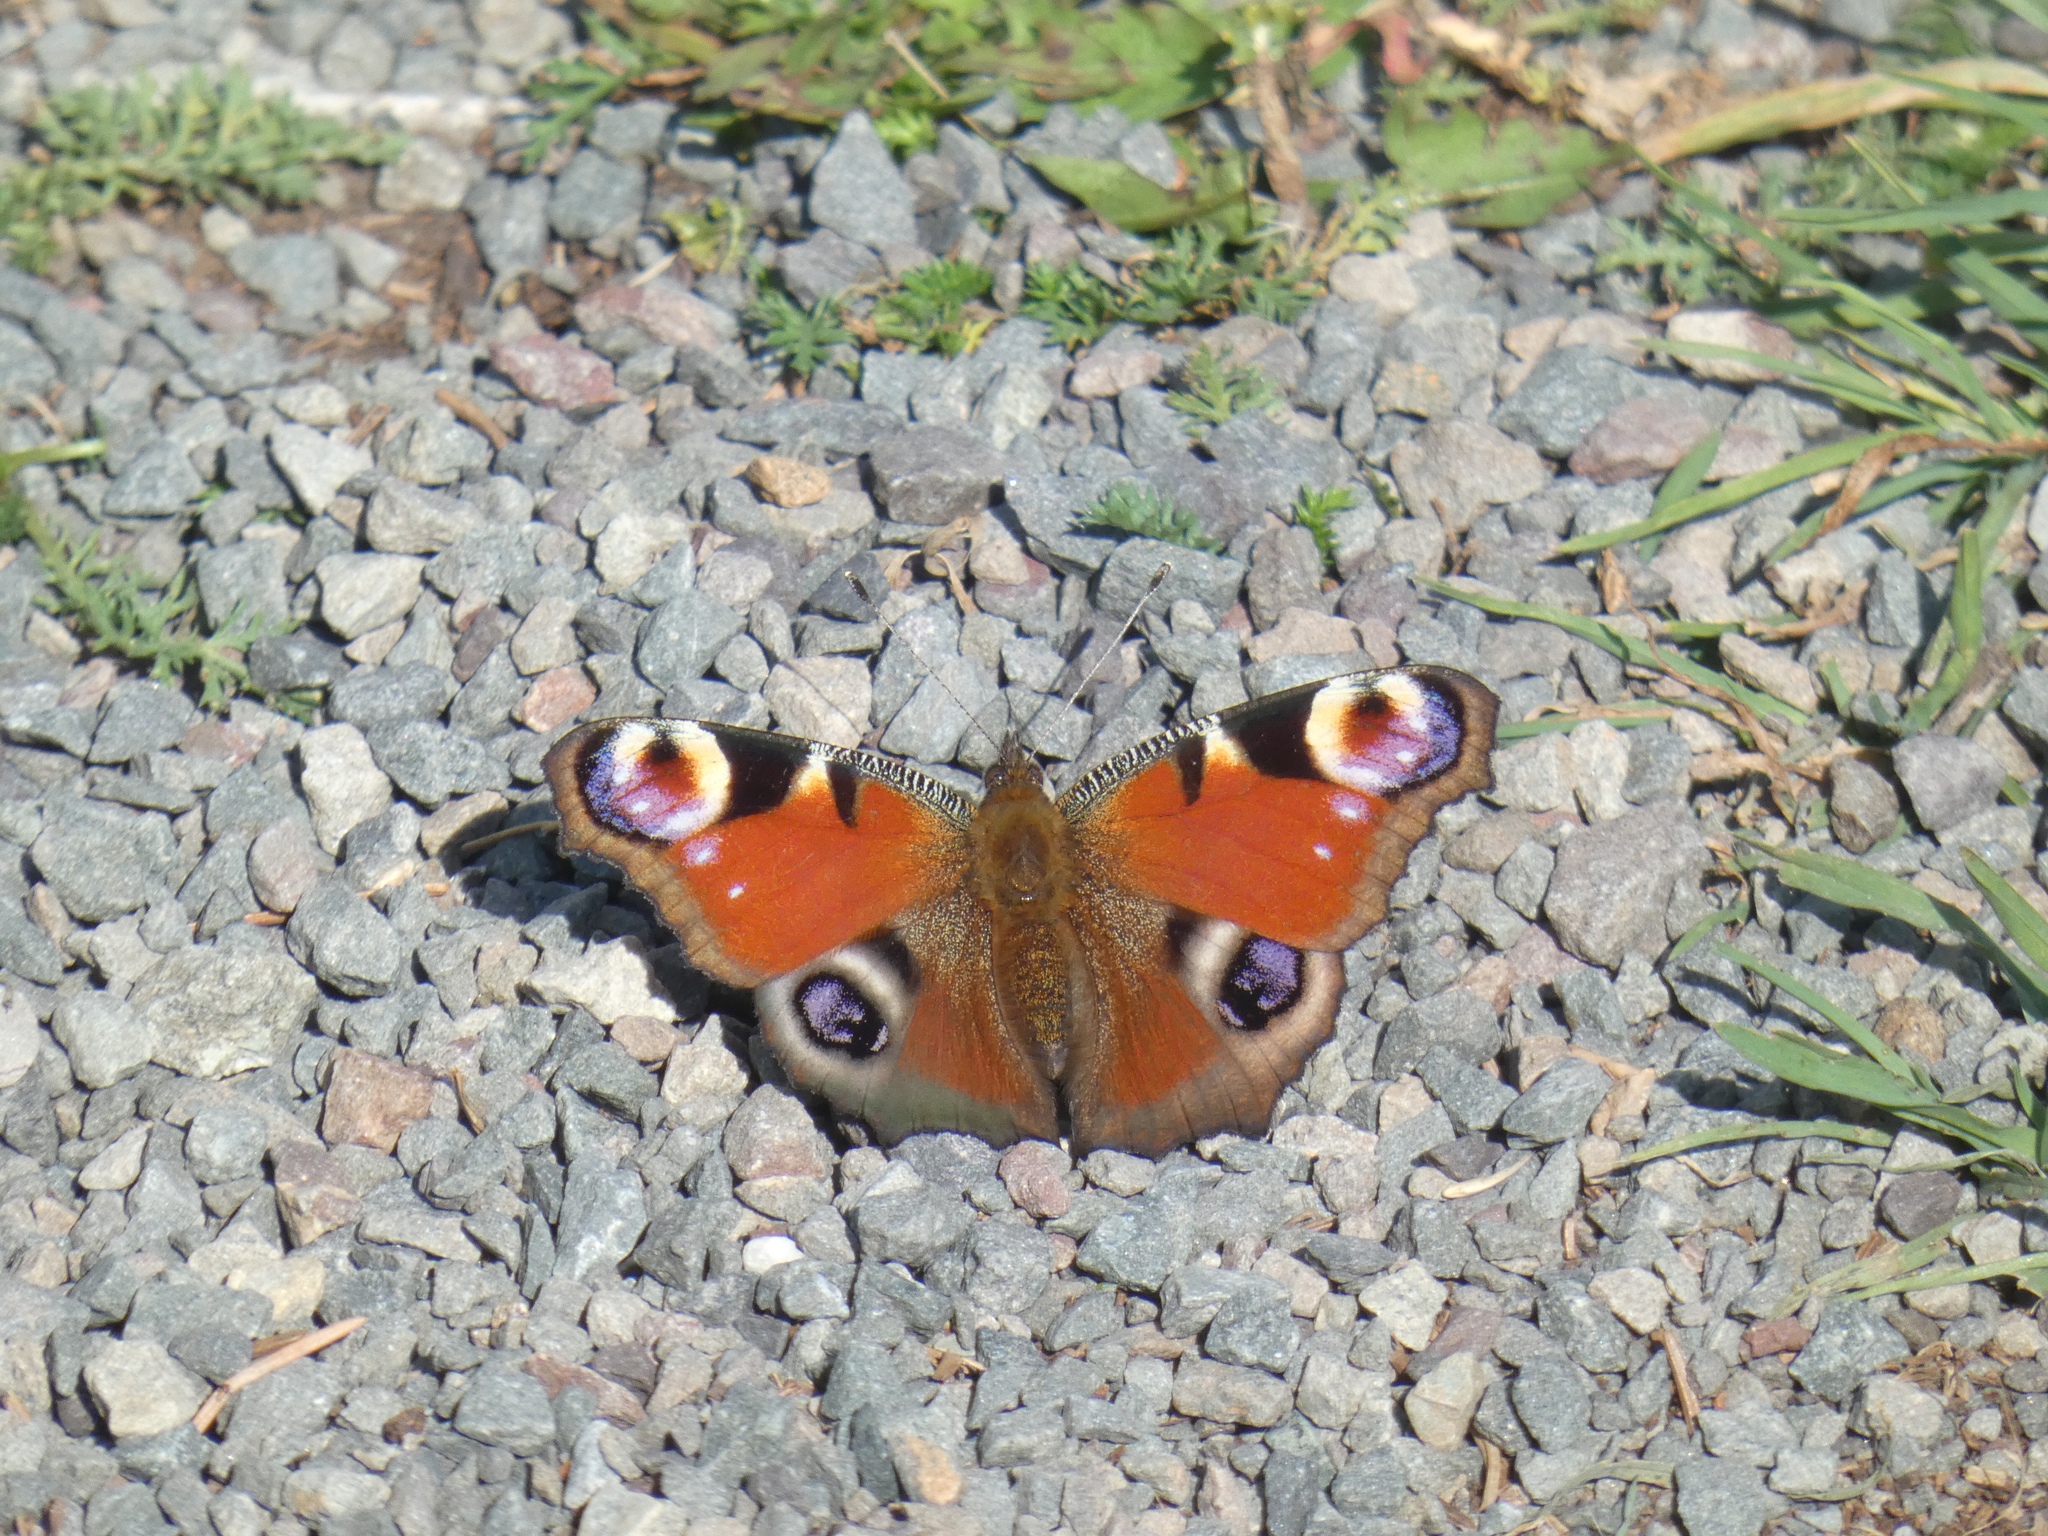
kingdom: Animalia
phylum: Arthropoda
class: Insecta
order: Lepidoptera
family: Nymphalidae
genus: Aglais
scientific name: Aglais io
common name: Peacock
